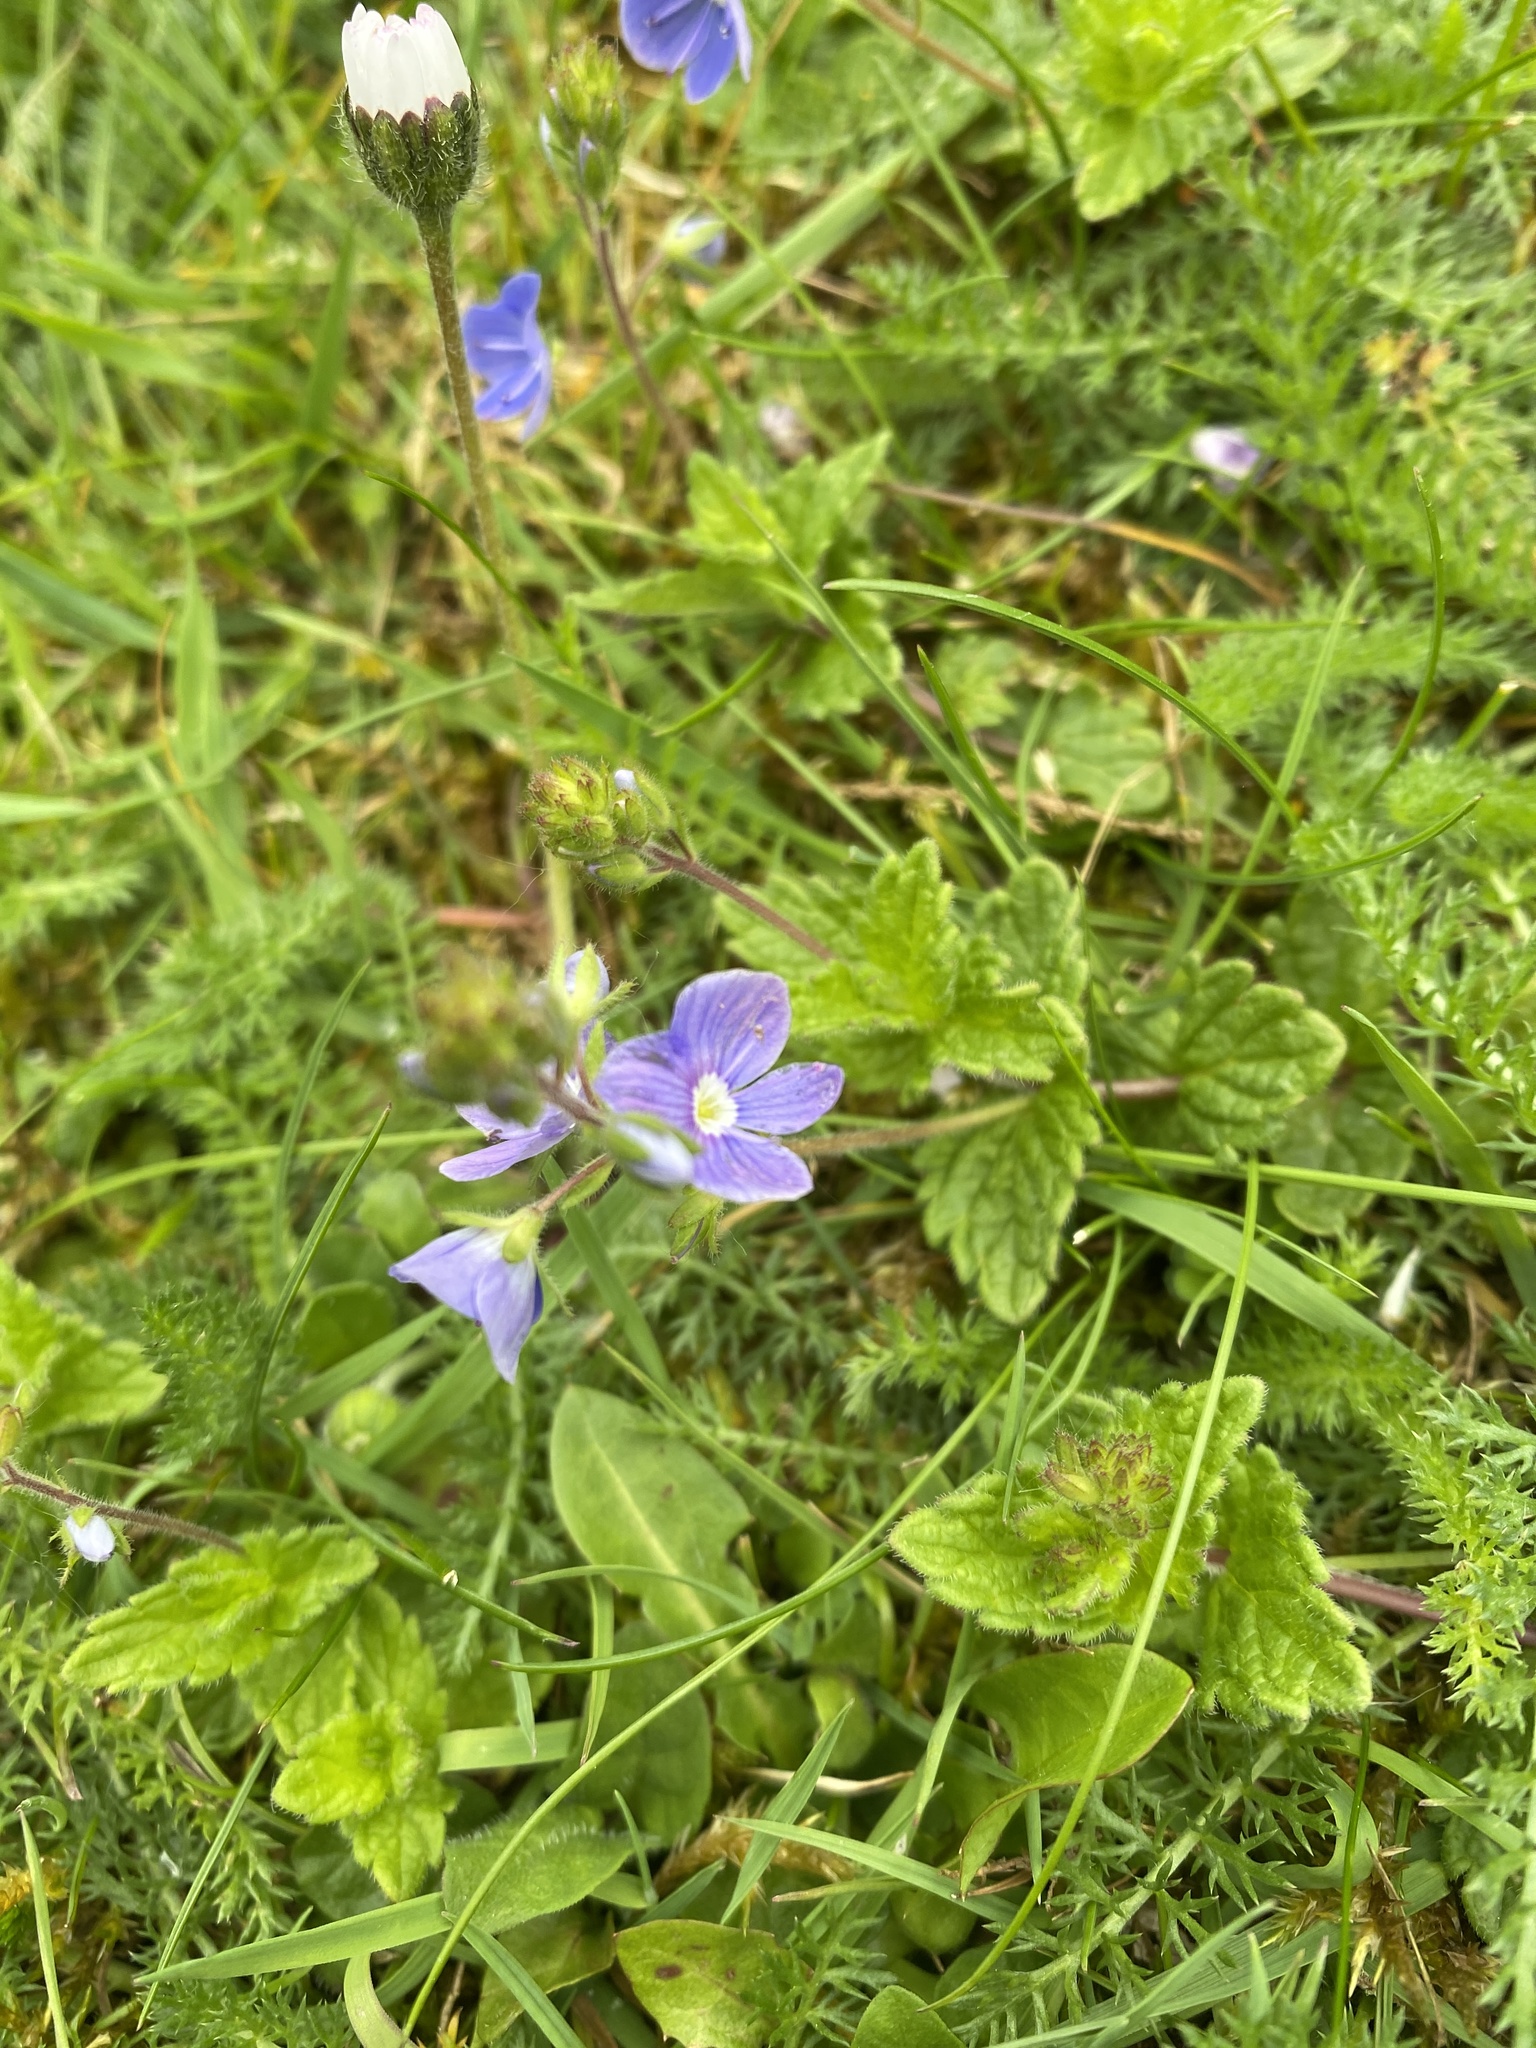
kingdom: Plantae
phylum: Tracheophyta
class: Magnoliopsida
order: Lamiales
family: Plantaginaceae
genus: Veronica
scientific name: Veronica chamaedrys
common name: Germander speedwell
